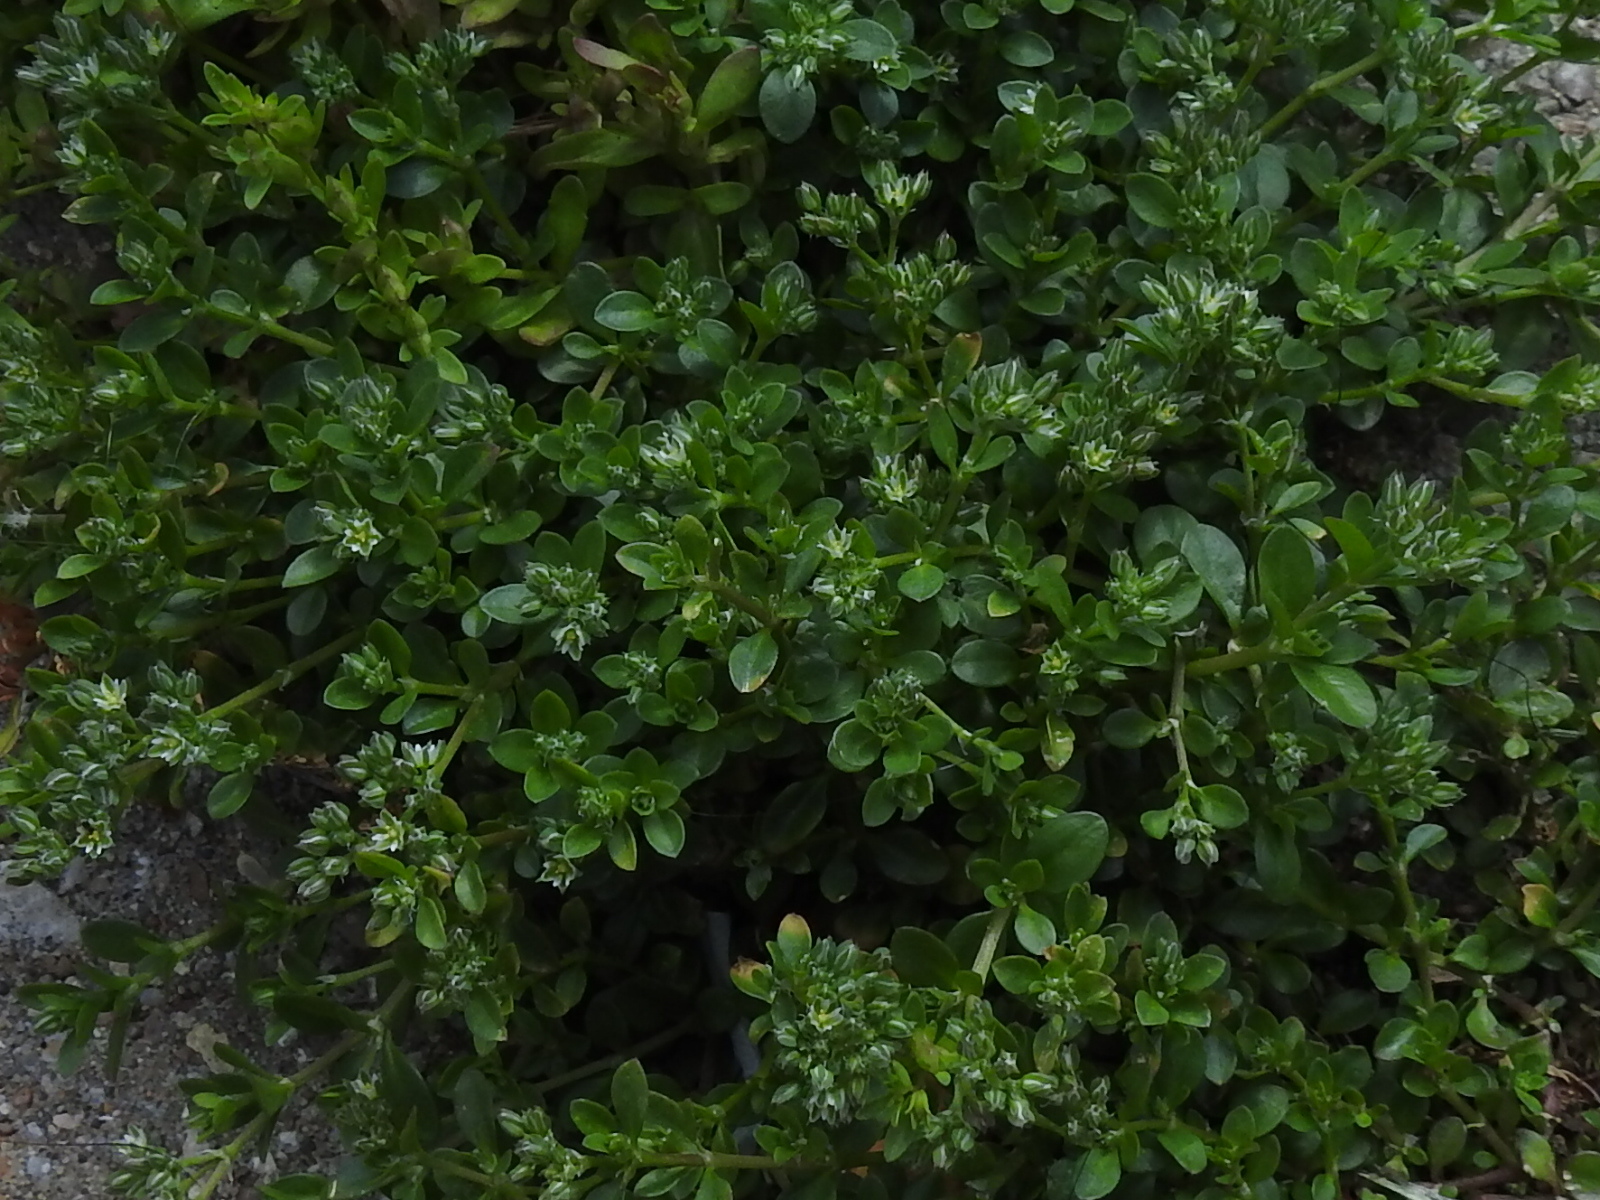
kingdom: Plantae
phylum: Tracheophyta
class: Magnoliopsida
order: Caryophyllales
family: Caryophyllaceae
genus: Polycarpon
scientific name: Polycarpon tetraphyllum
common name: Four-leaved all-seed
